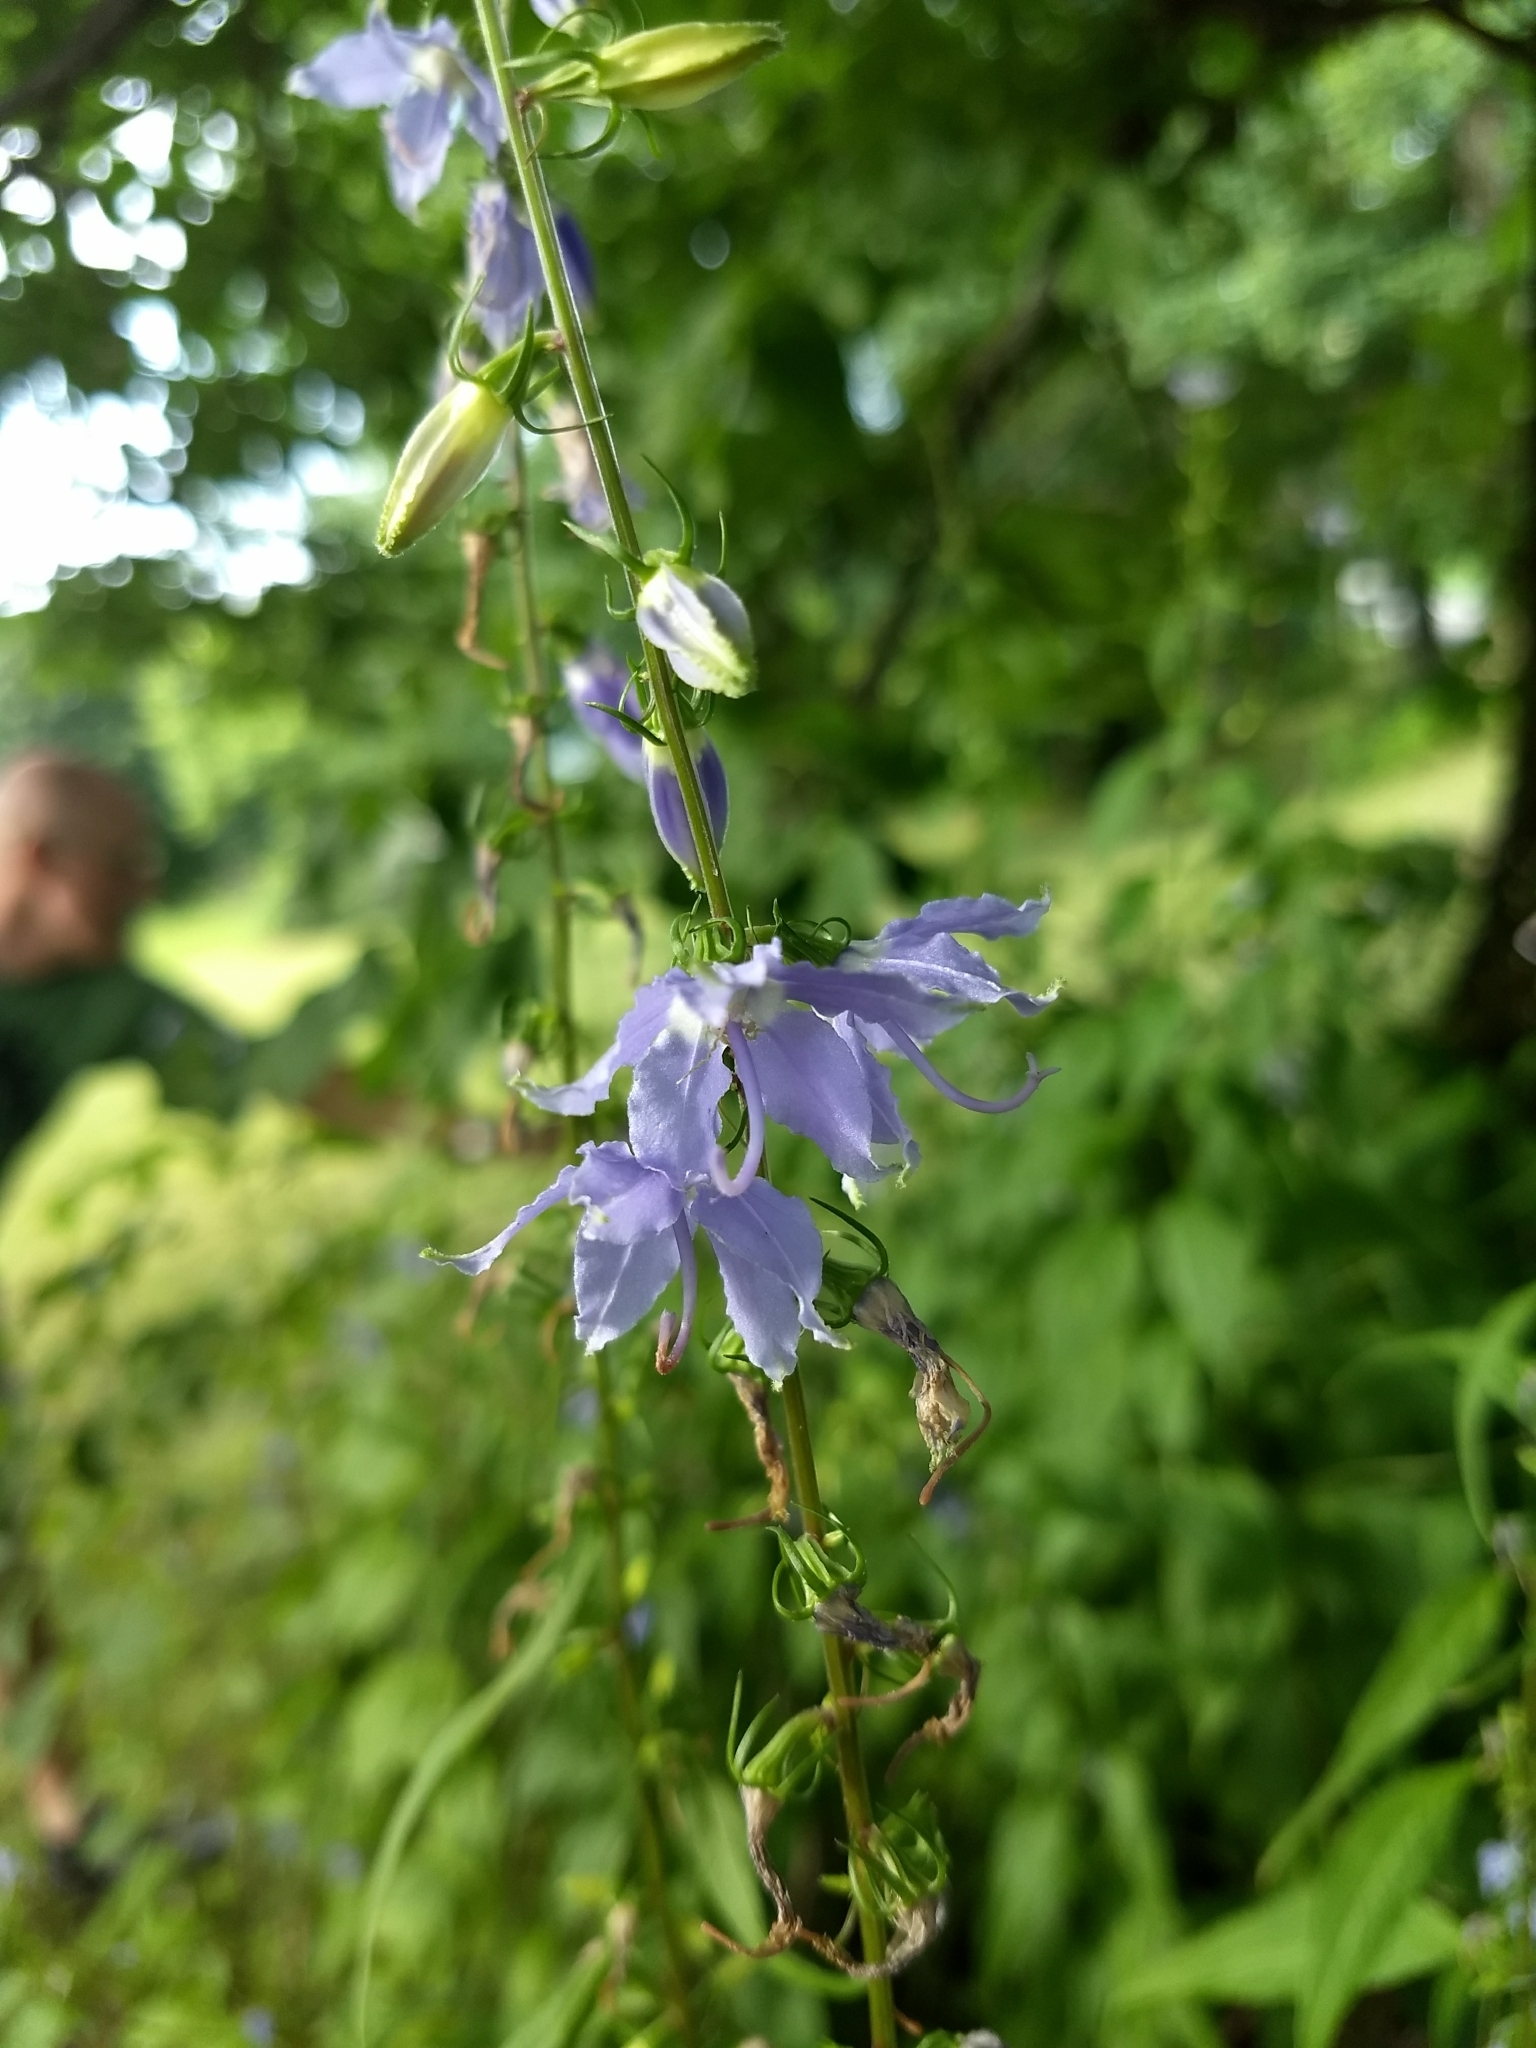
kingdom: Plantae
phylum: Tracheophyta
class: Magnoliopsida
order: Asterales
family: Campanulaceae
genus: Campanulastrum
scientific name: Campanulastrum americanum
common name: American bellflower
